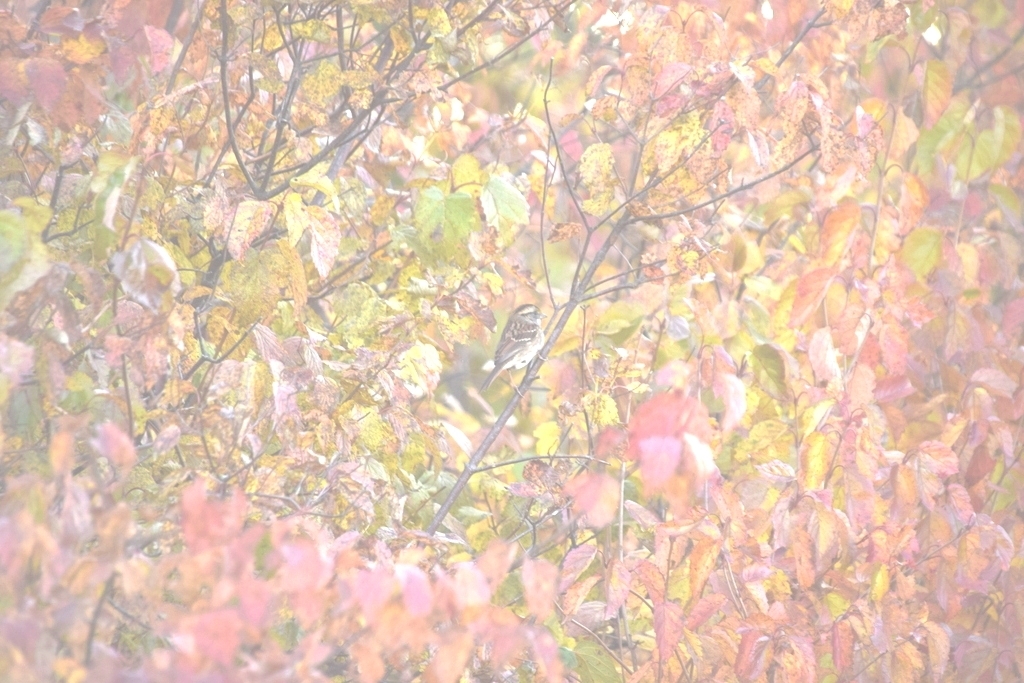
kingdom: Animalia
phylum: Chordata
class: Aves
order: Passeriformes
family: Passerellidae
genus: Zonotrichia
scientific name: Zonotrichia albicollis
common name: White-throated sparrow
